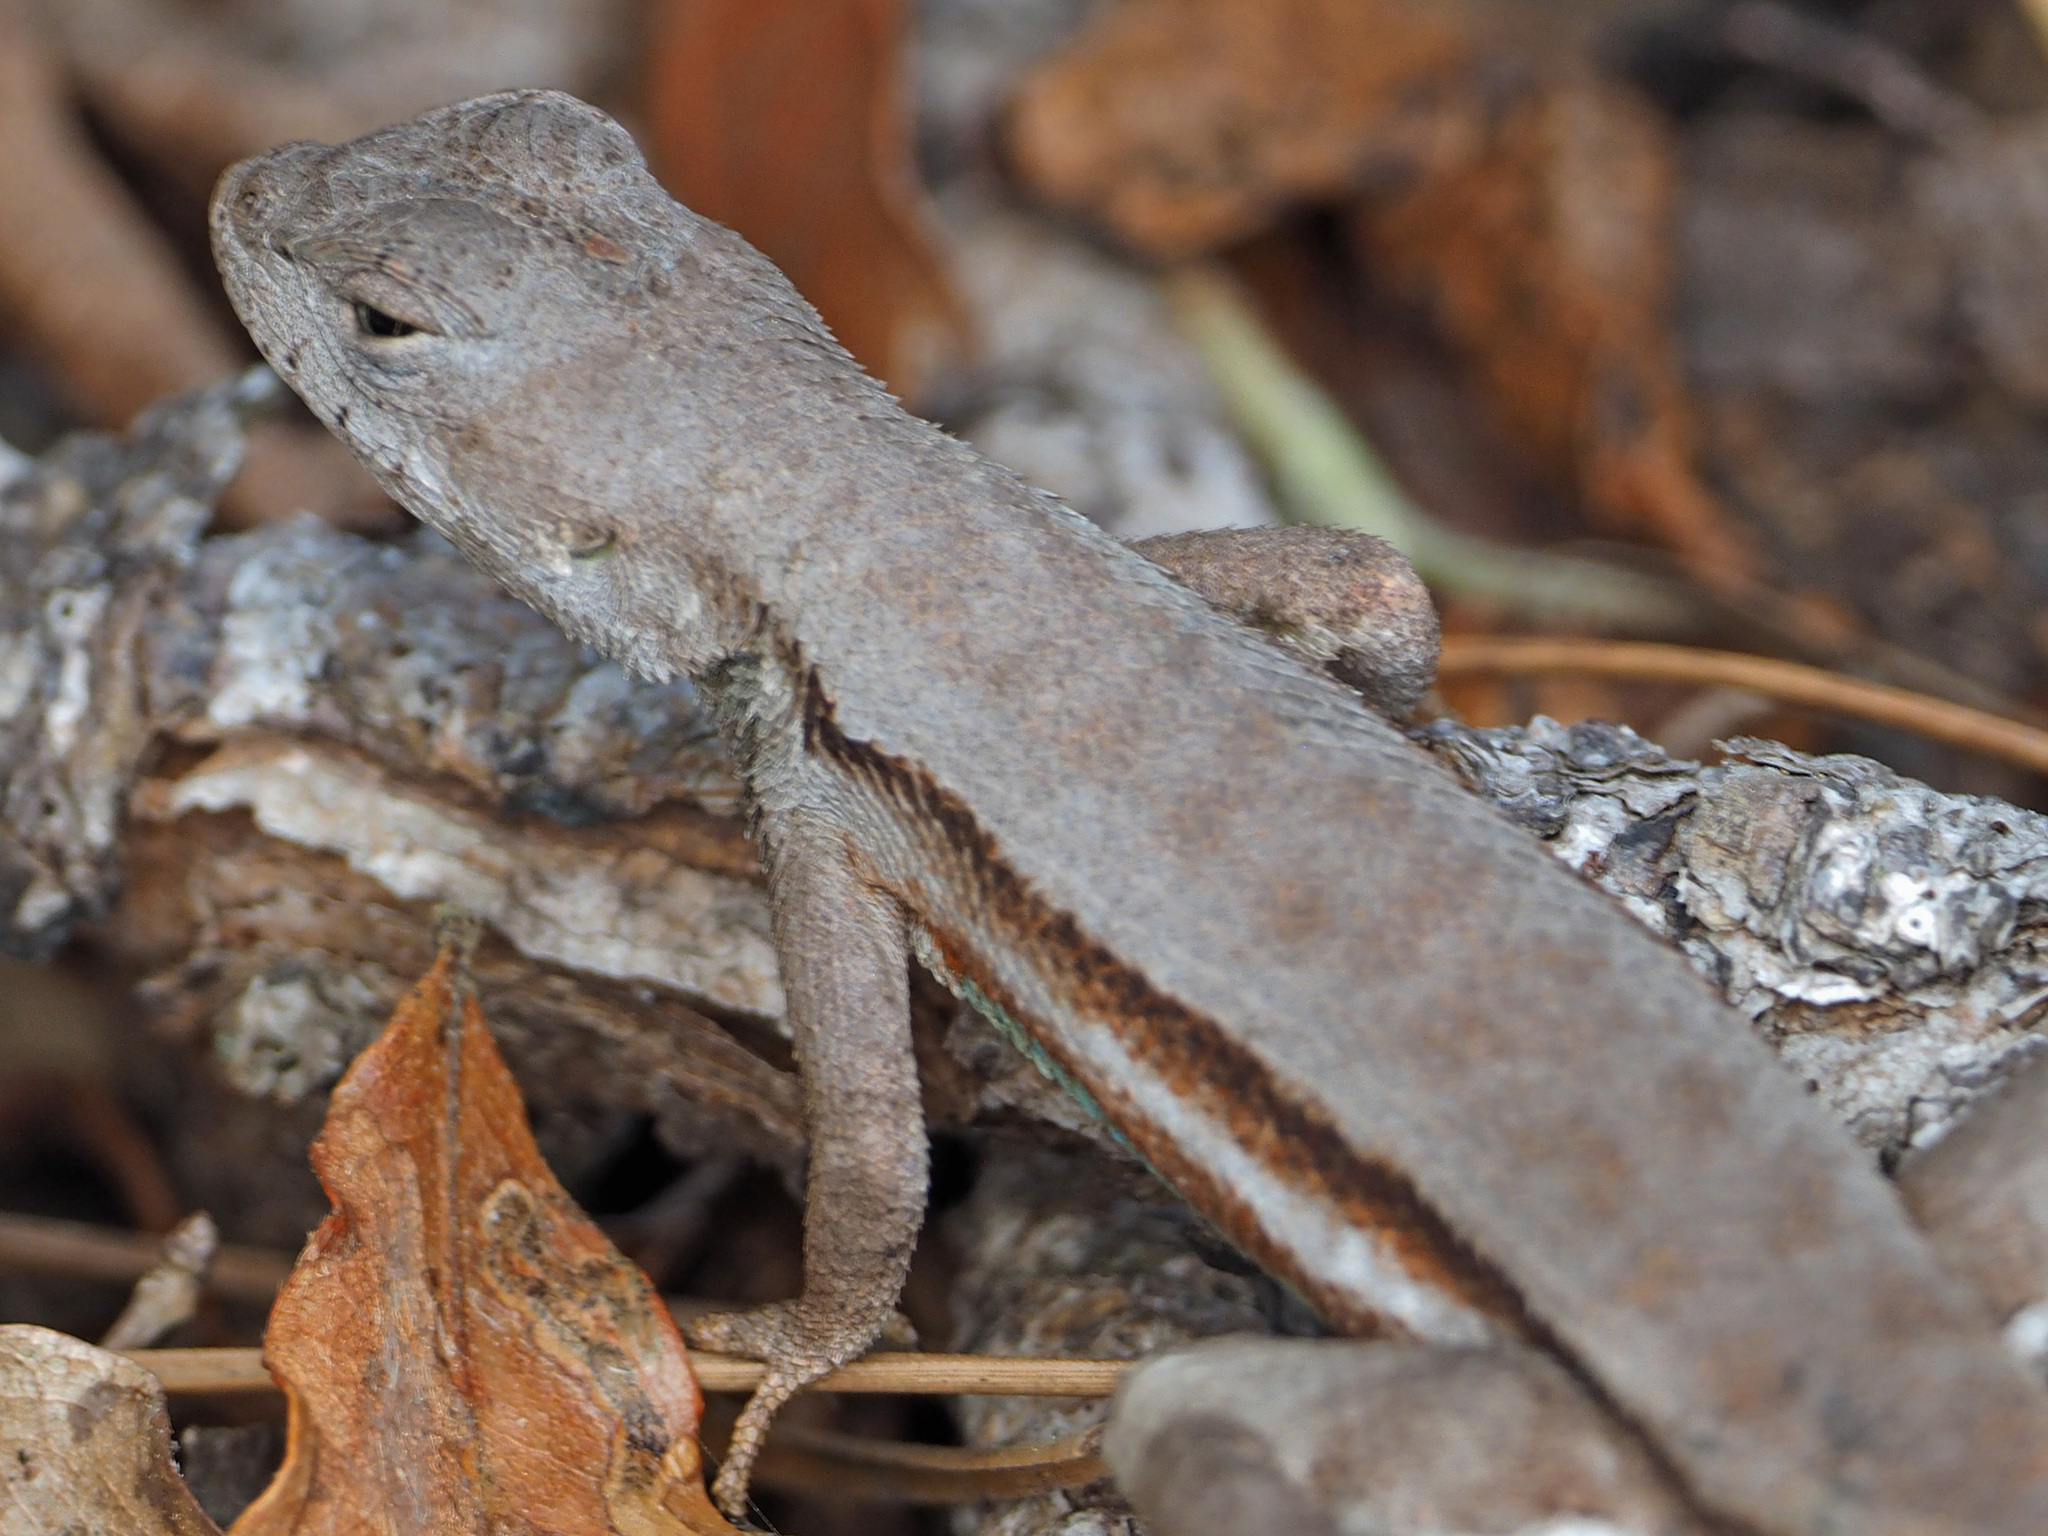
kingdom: Animalia
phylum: Chordata
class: Squamata
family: Phrynosomatidae
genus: Sceloporus
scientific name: Sceloporus woodi
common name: Florida scrub lizard
